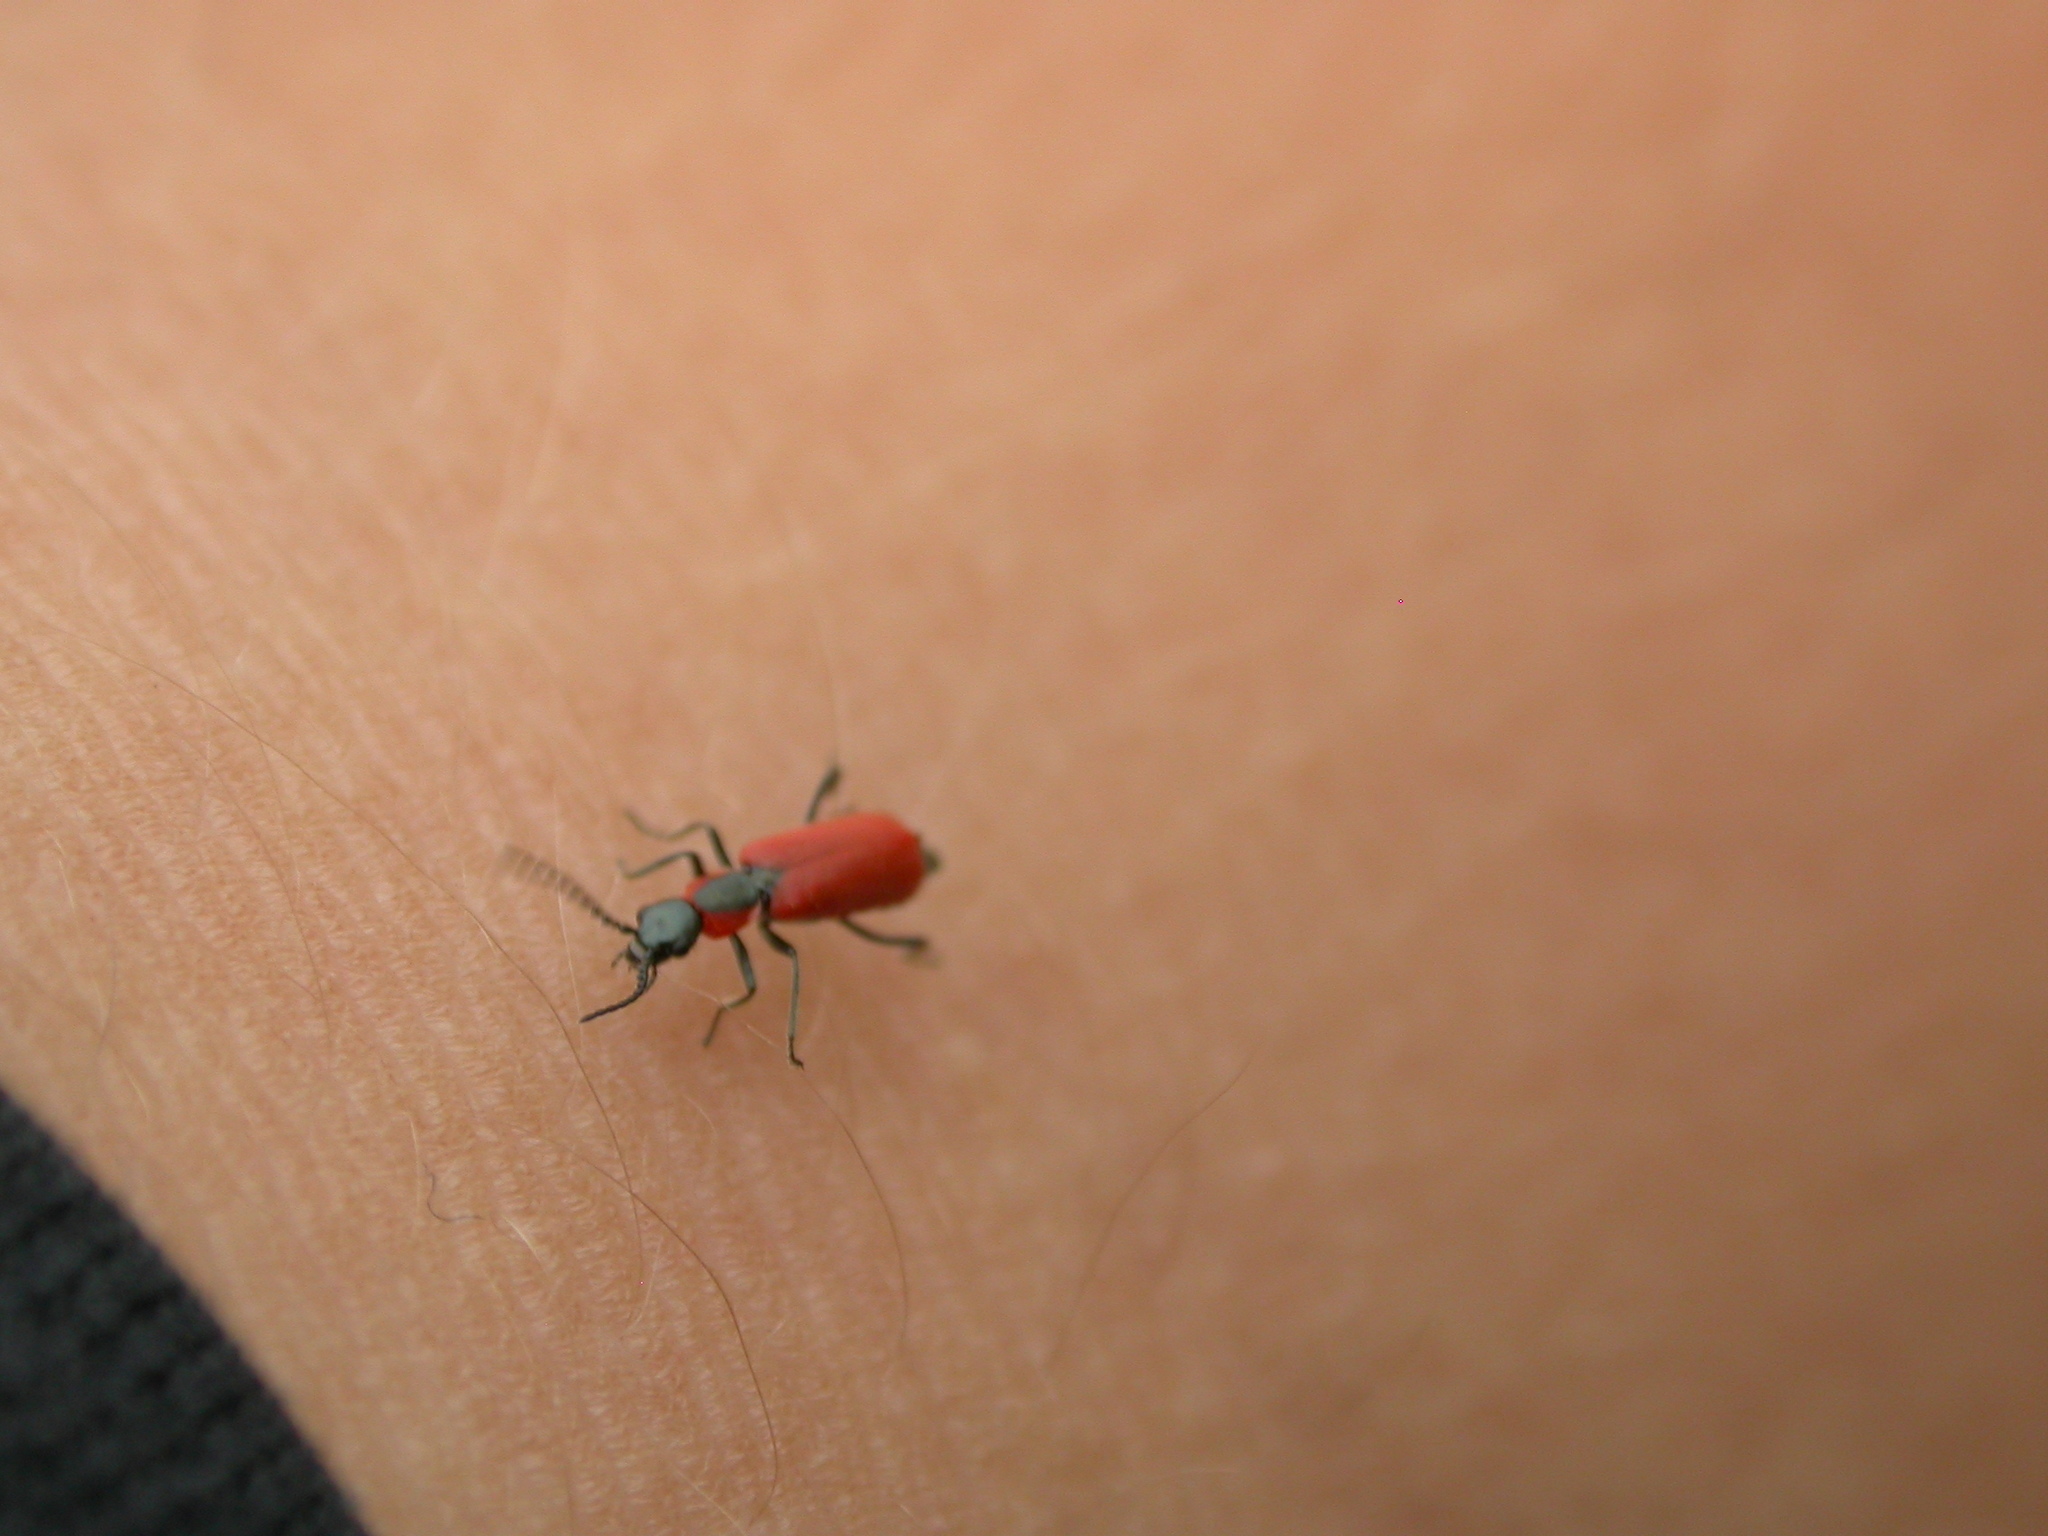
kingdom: Animalia
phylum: Arthropoda
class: Insecta
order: Coleoptera
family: Melyridae
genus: Anthocomus
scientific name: Anthocomus rufus
